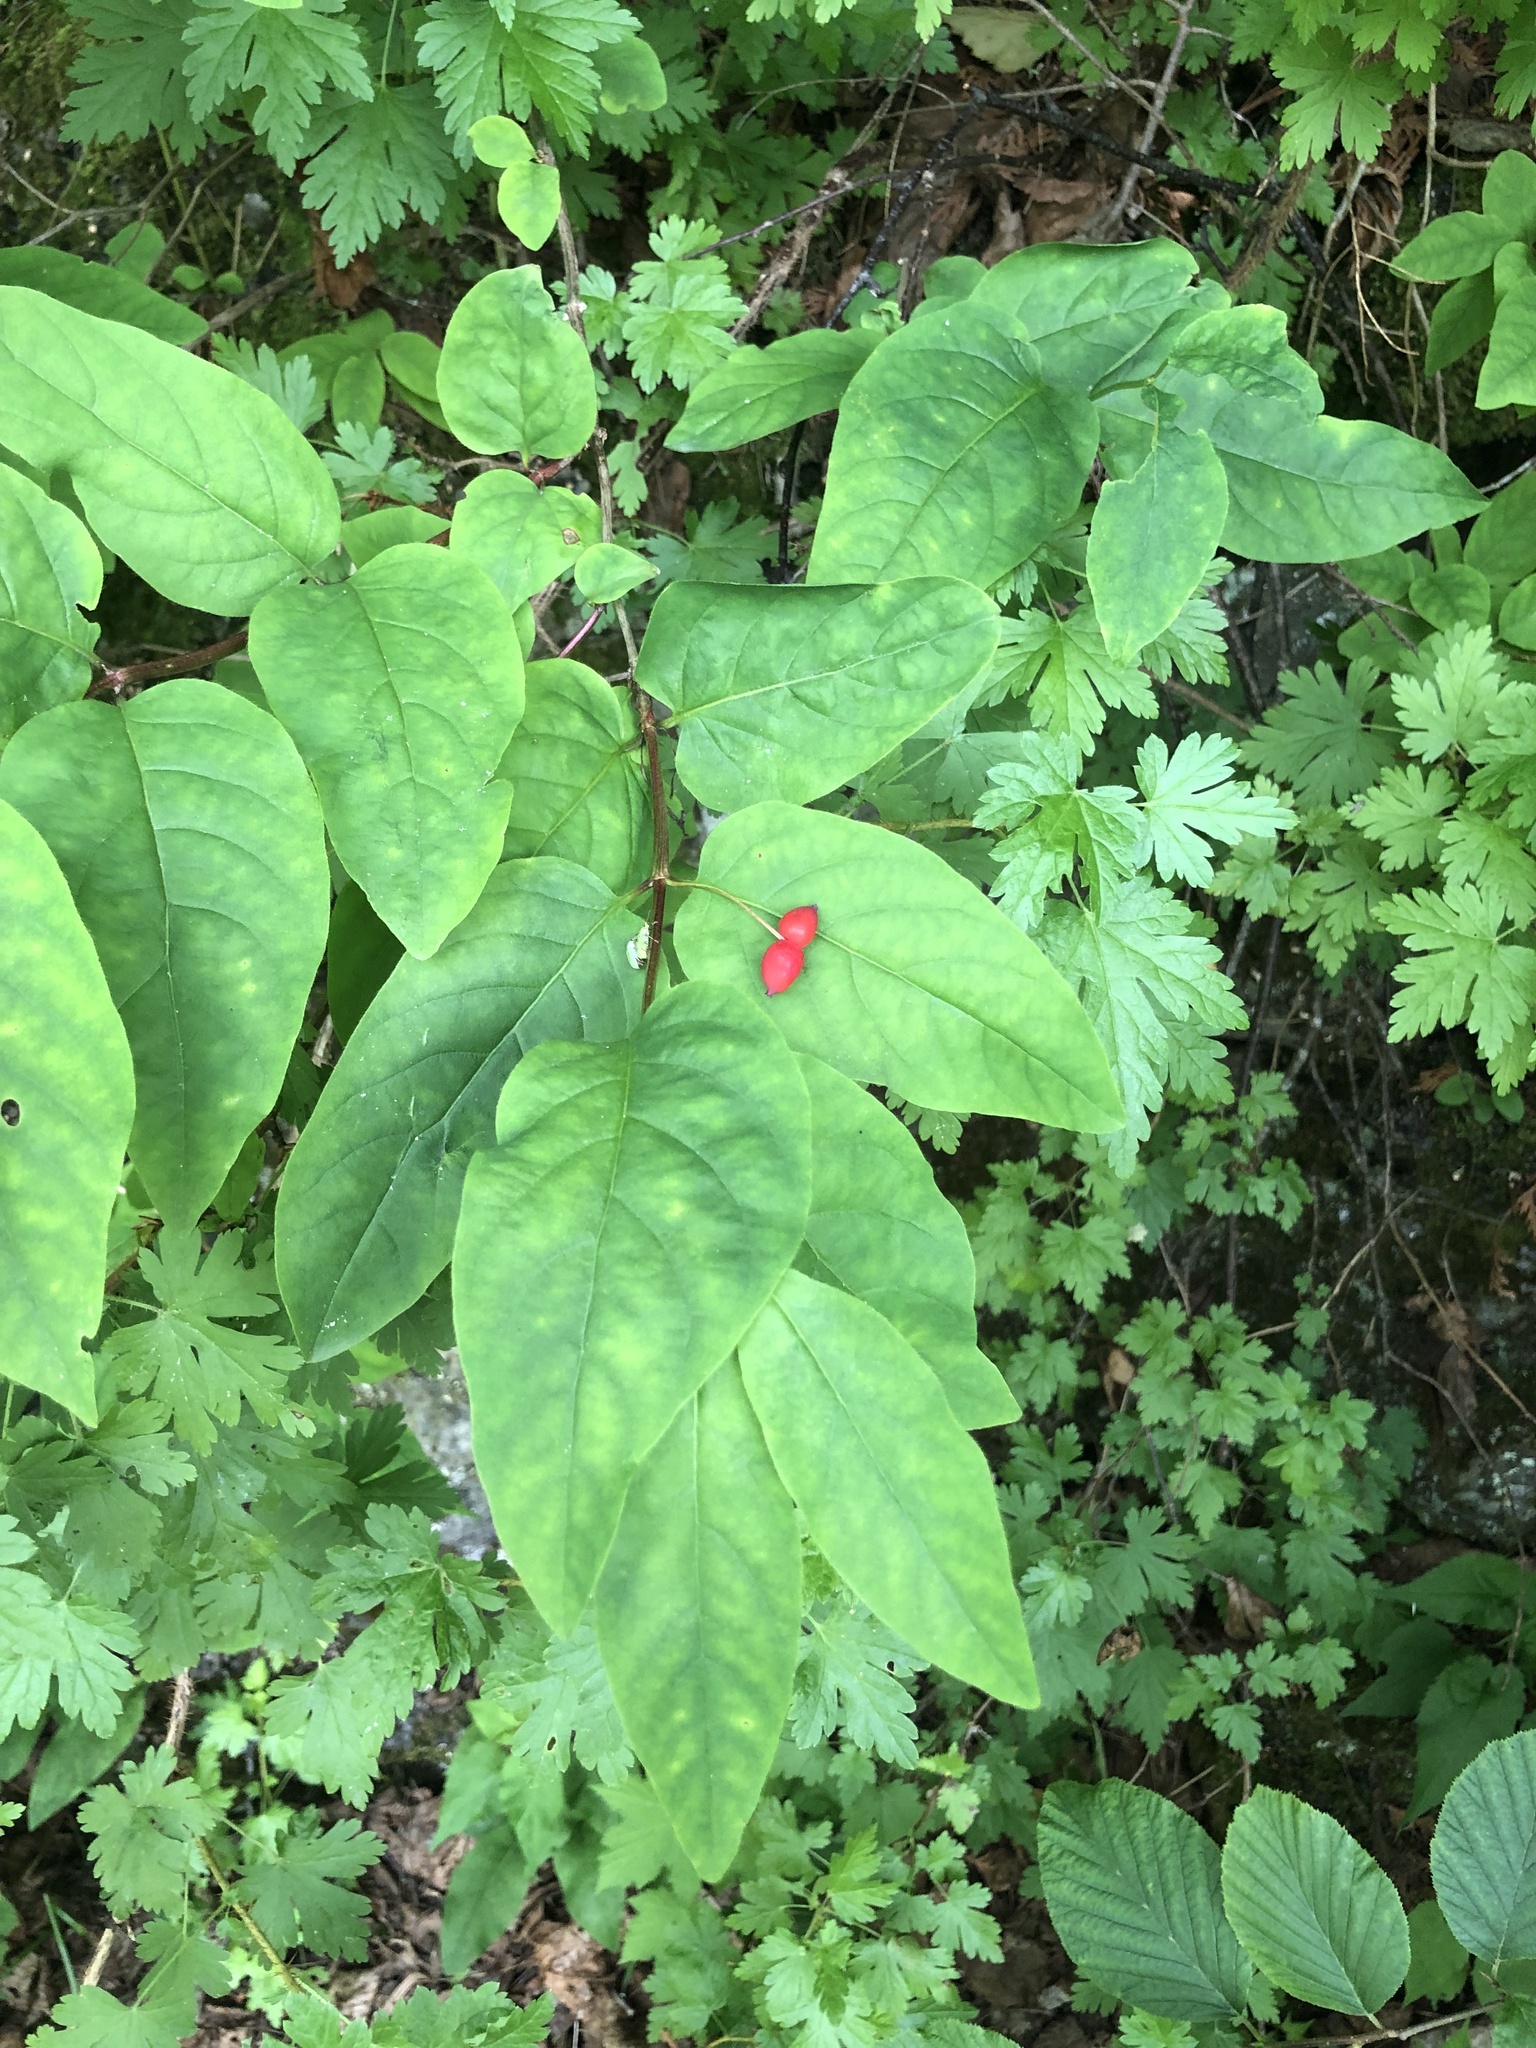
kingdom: Plantae
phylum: Tracheophyta
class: Magnoliopsida
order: Dipsacales
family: Caprifoliaceae
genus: Lonicera
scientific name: Lonicera canadensis
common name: American fly-honeysuckle
